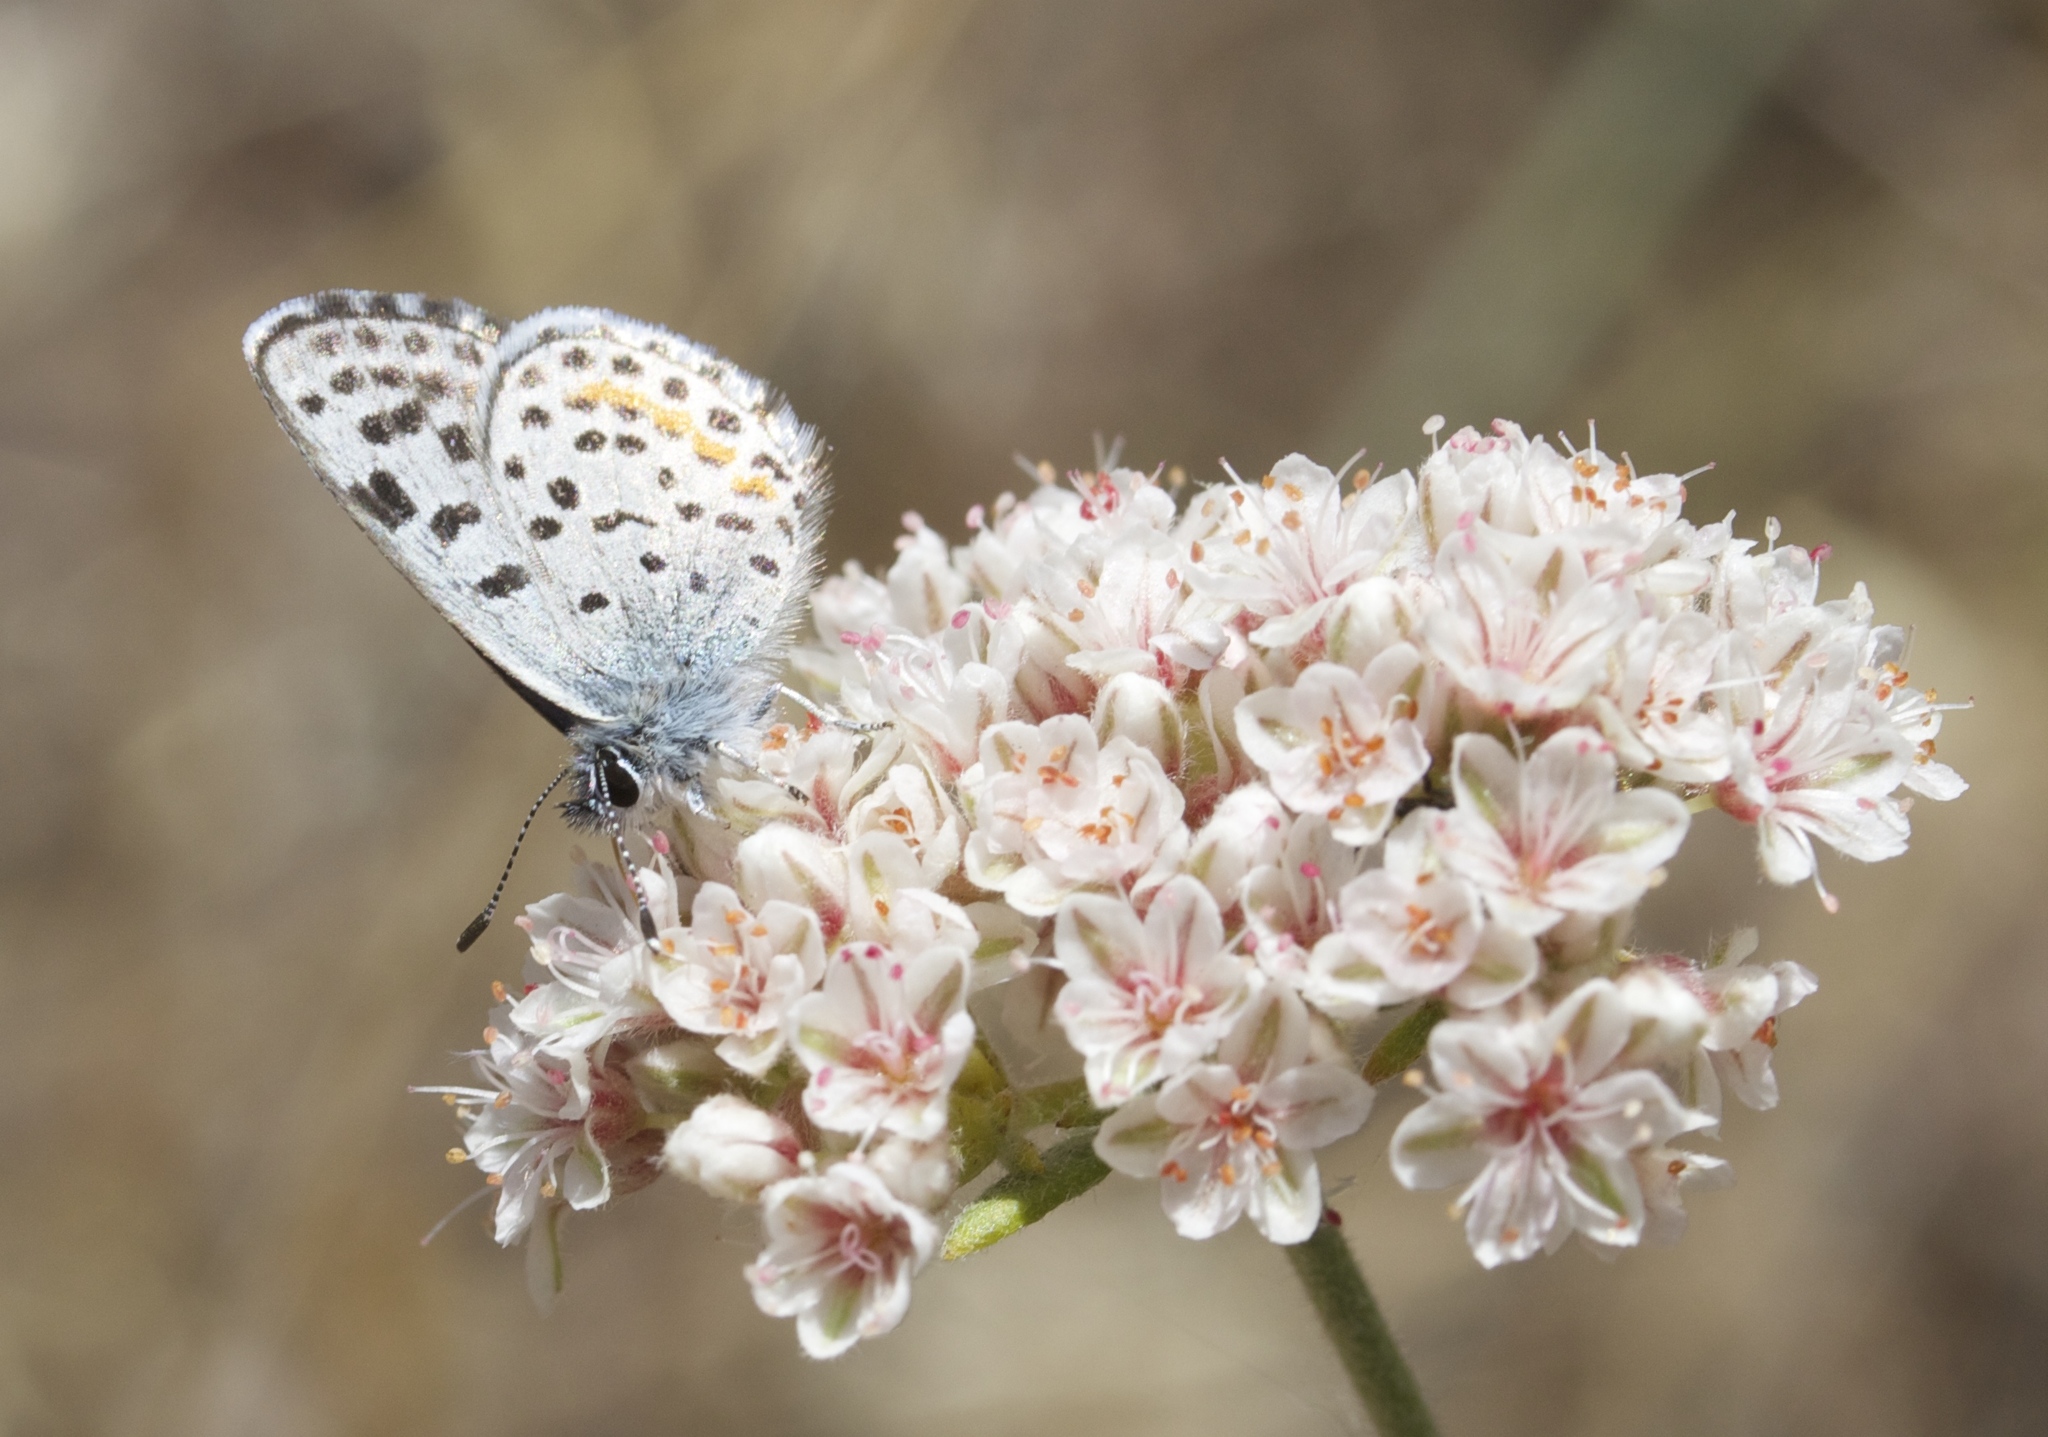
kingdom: Animalia
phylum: Arthropoda
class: Insecta
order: Lepidoptera
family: Lycaenidae
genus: Philotes
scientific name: Philotes bernardino
